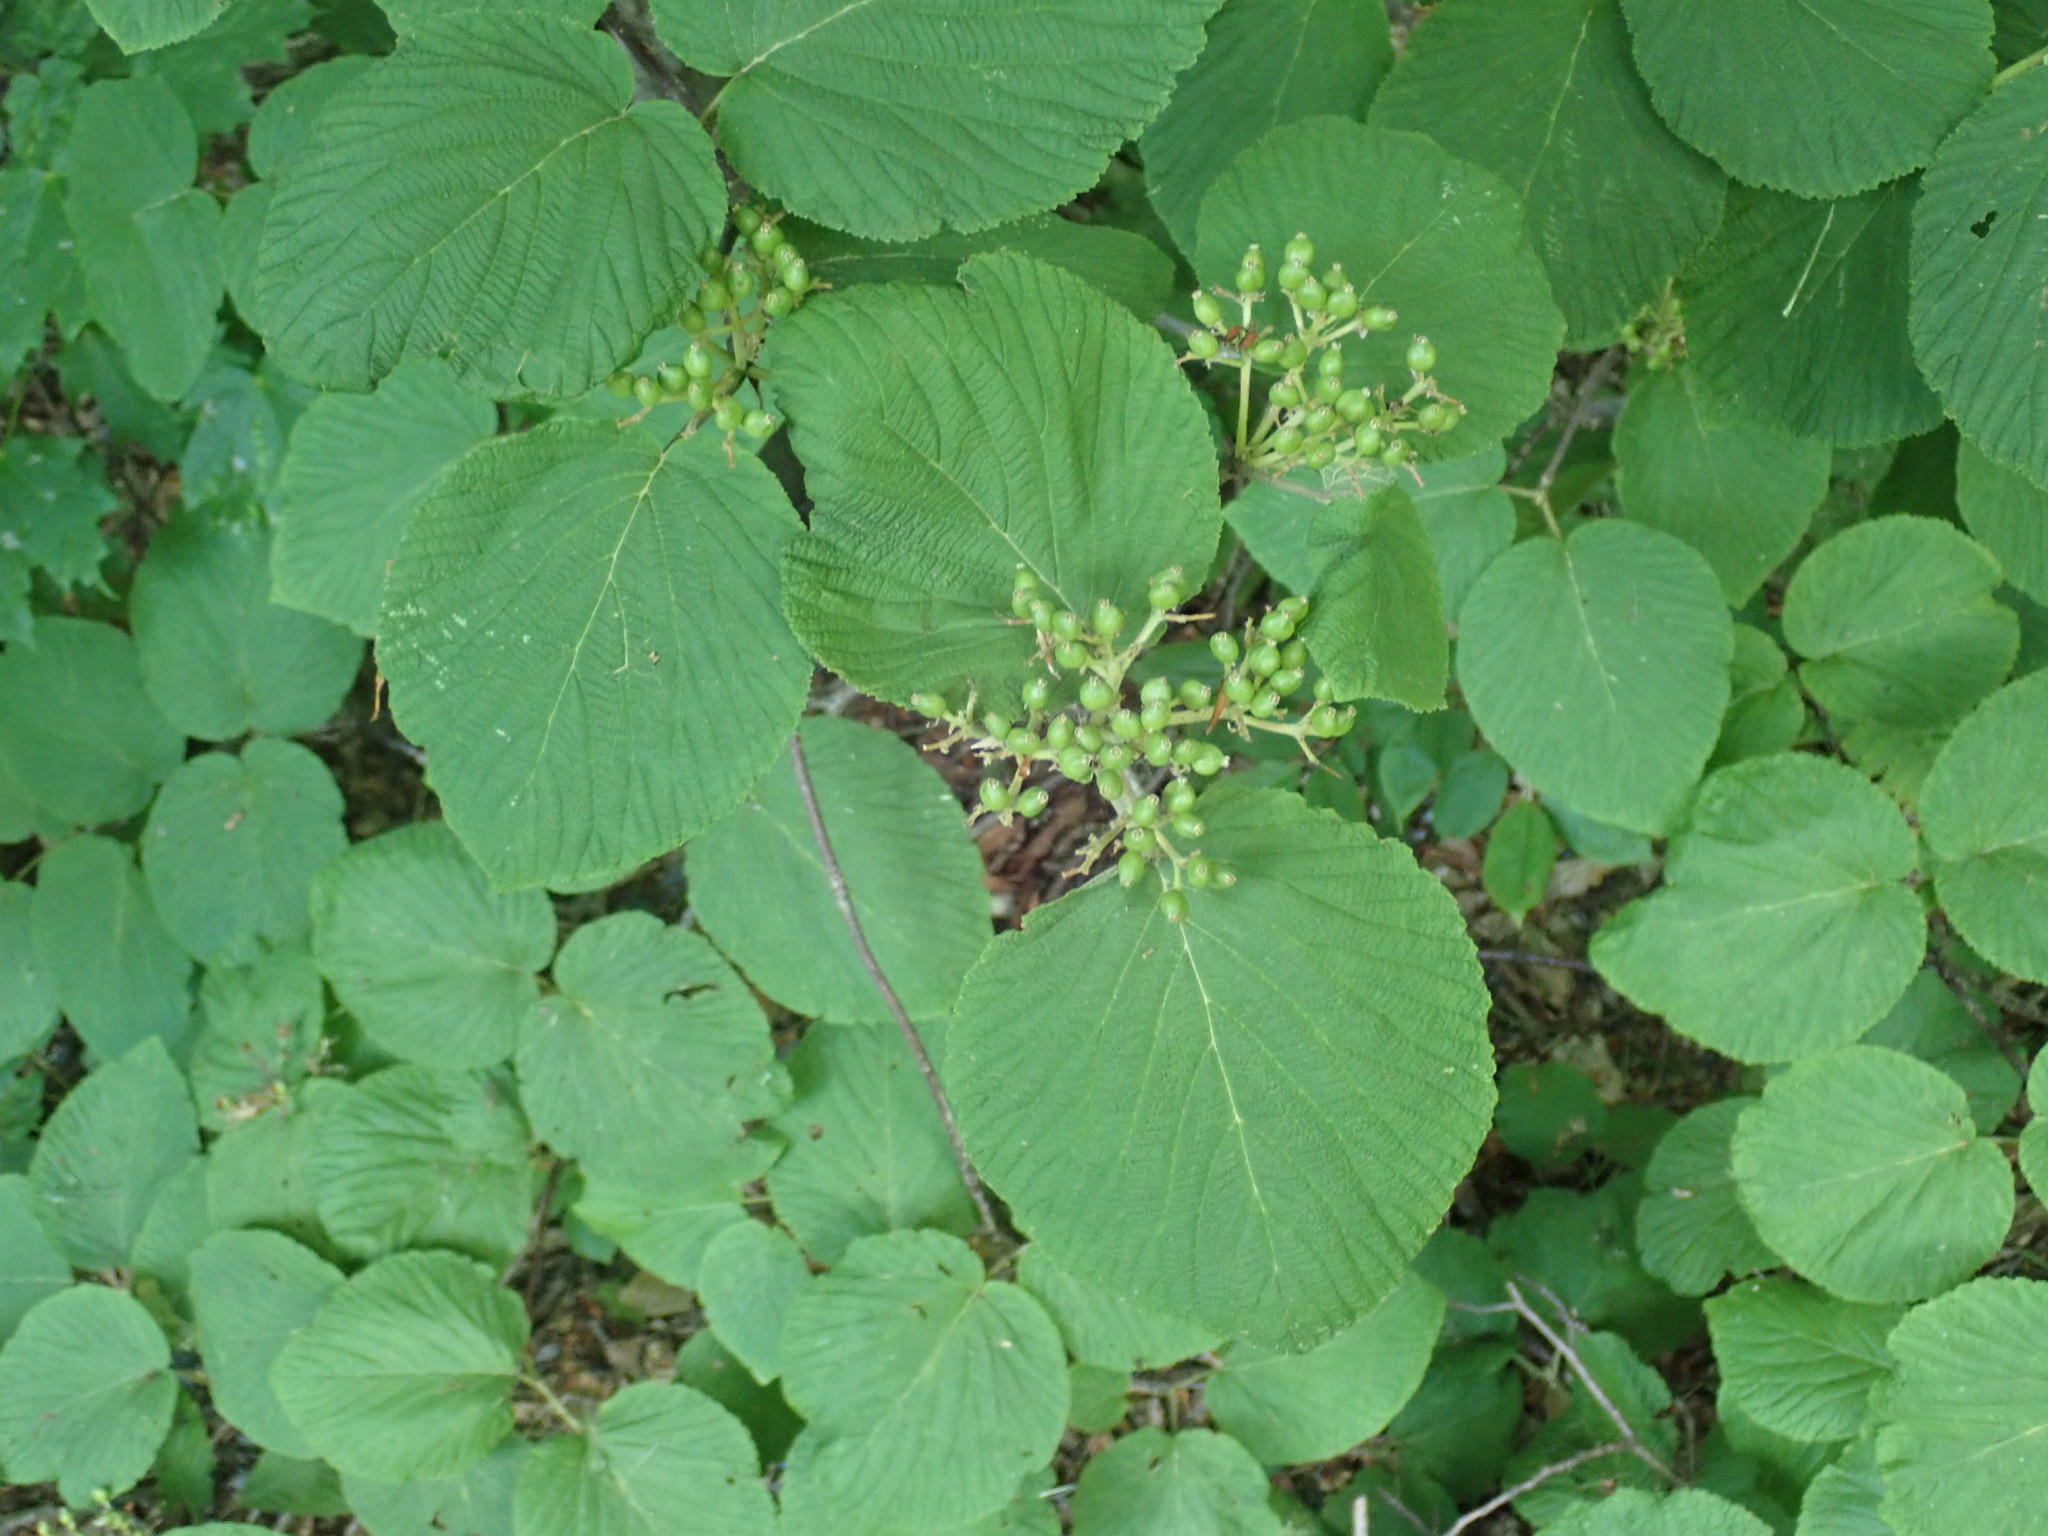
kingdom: Plantae
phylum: Tracheophyta
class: Magnoliopsida
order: Dipsacales
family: Viburnaceae
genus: Viburnum
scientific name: Viburnum lantanoides
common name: Hobblebush
